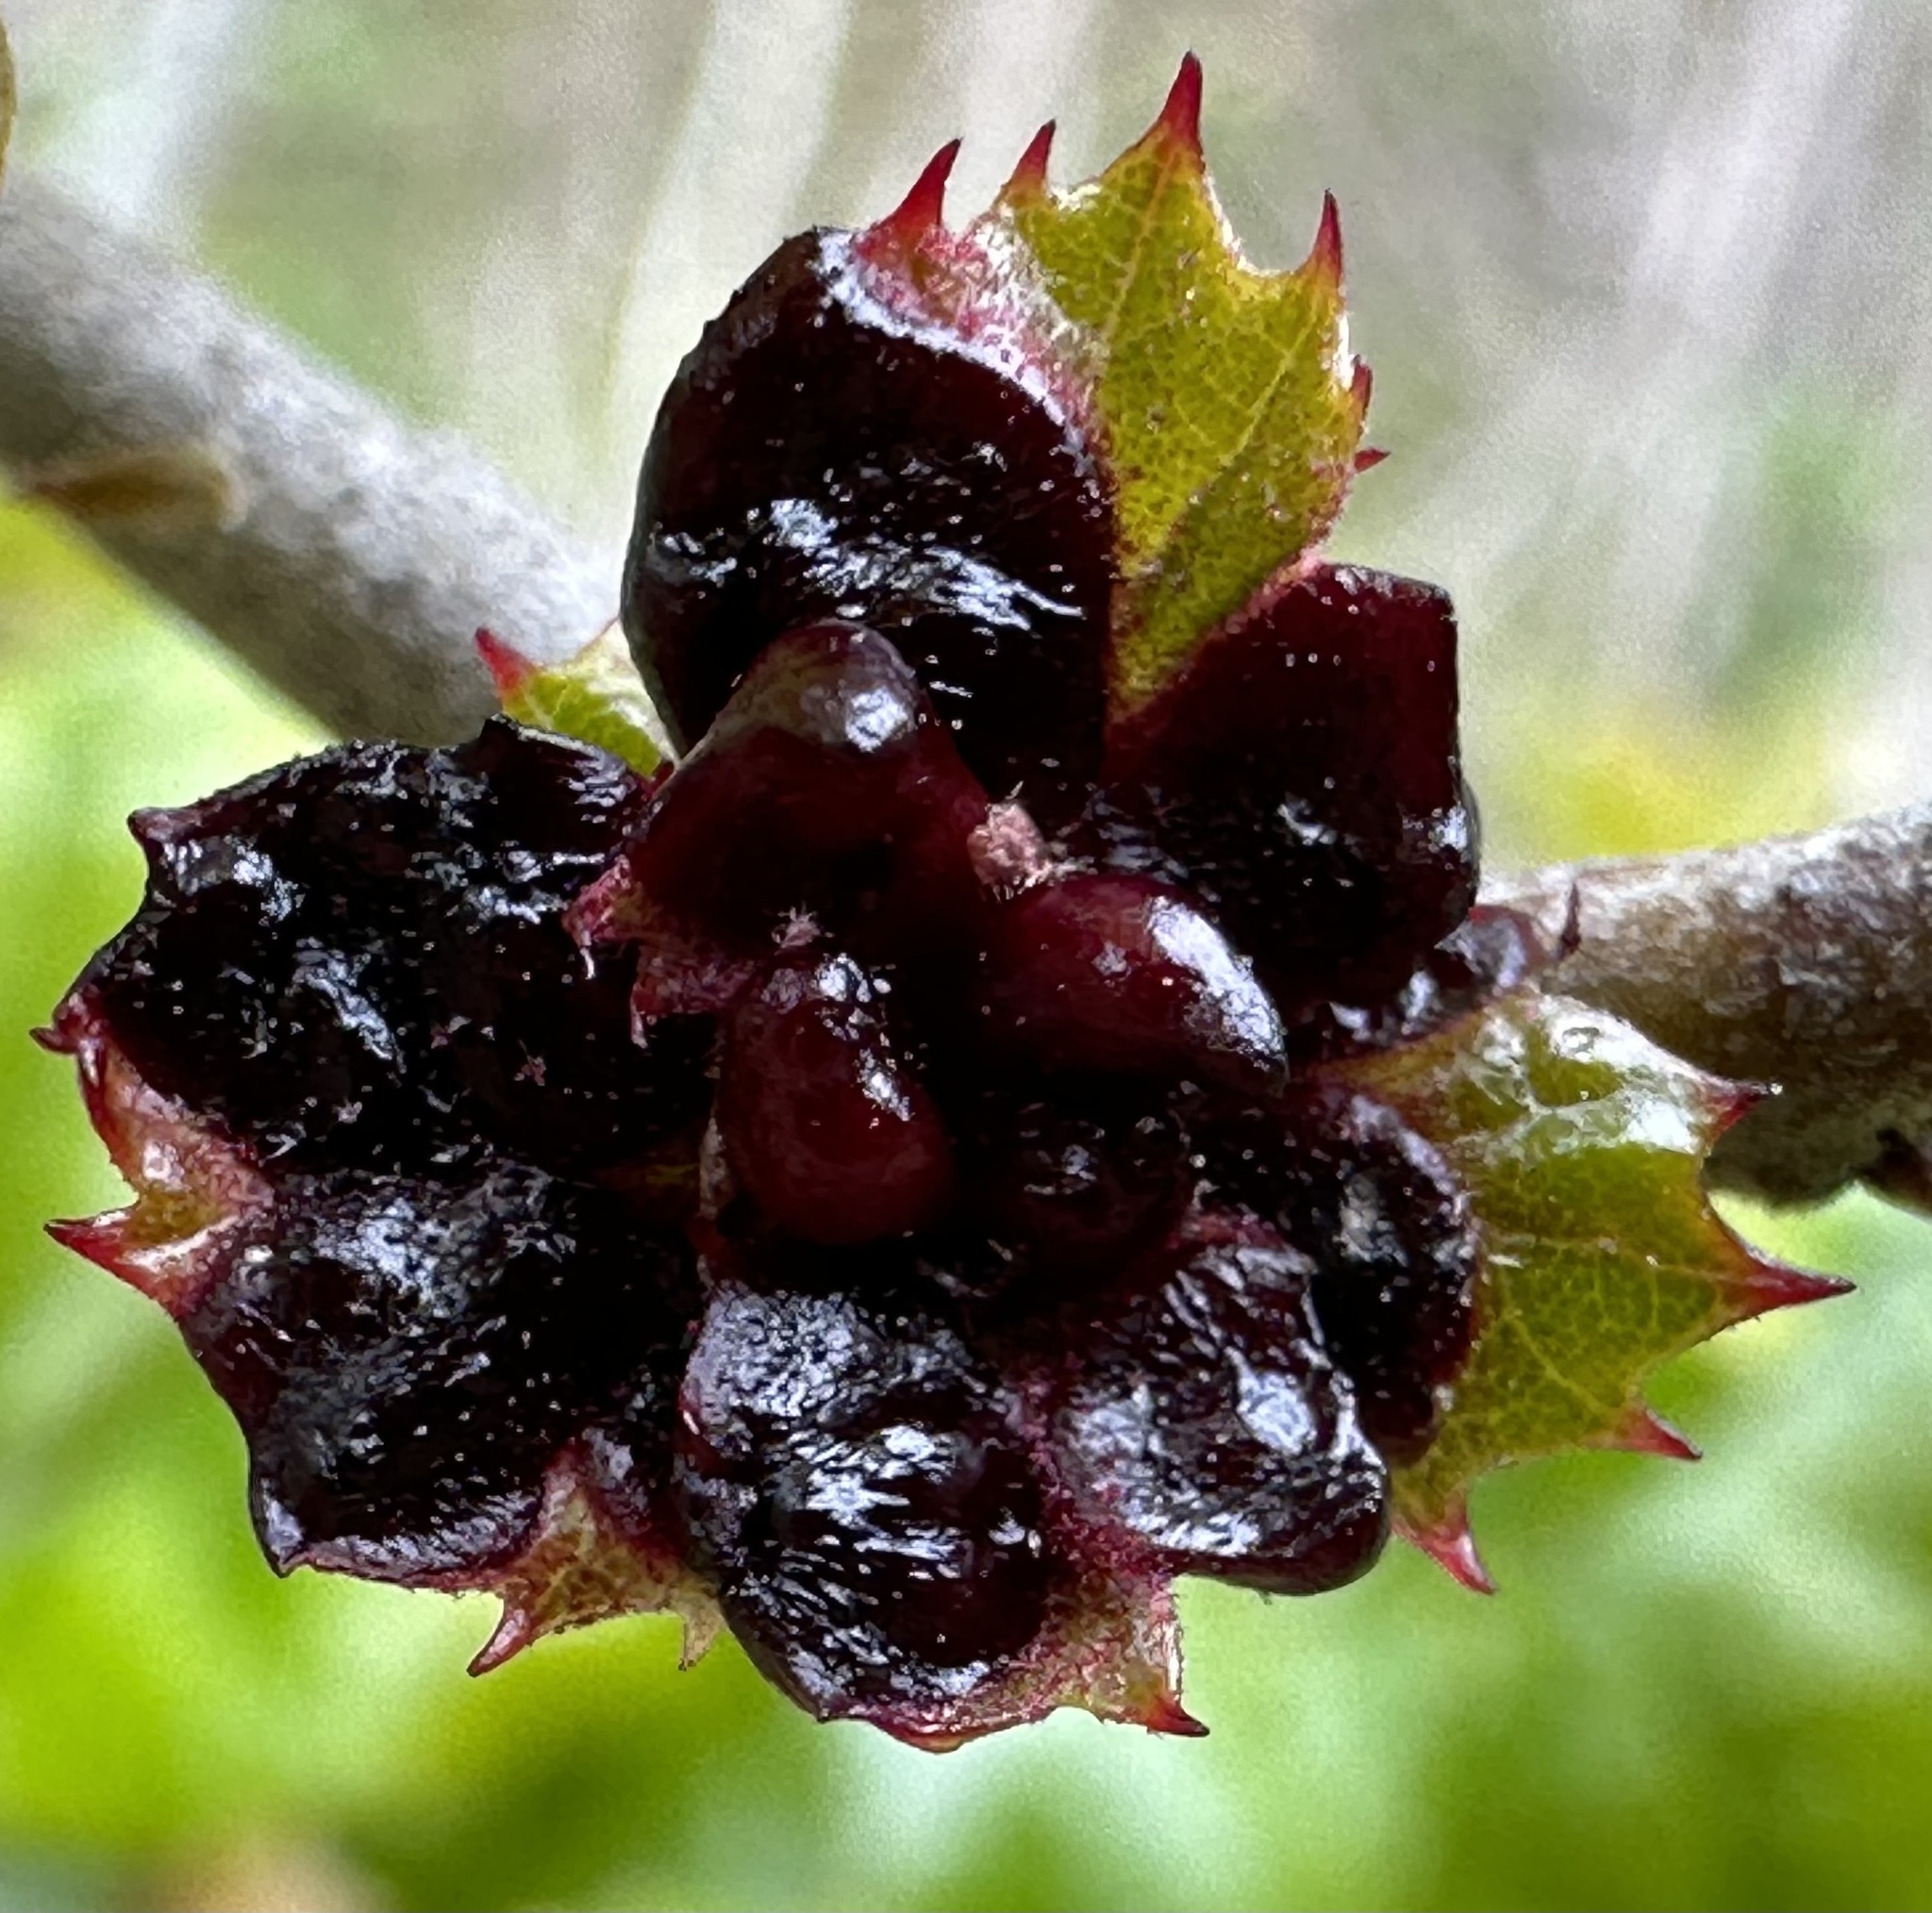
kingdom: Animalia
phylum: Arthropoda
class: Insecta
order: Hymenoptera
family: Cynipidae
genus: Dryocosmus
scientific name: Dryocosmus
